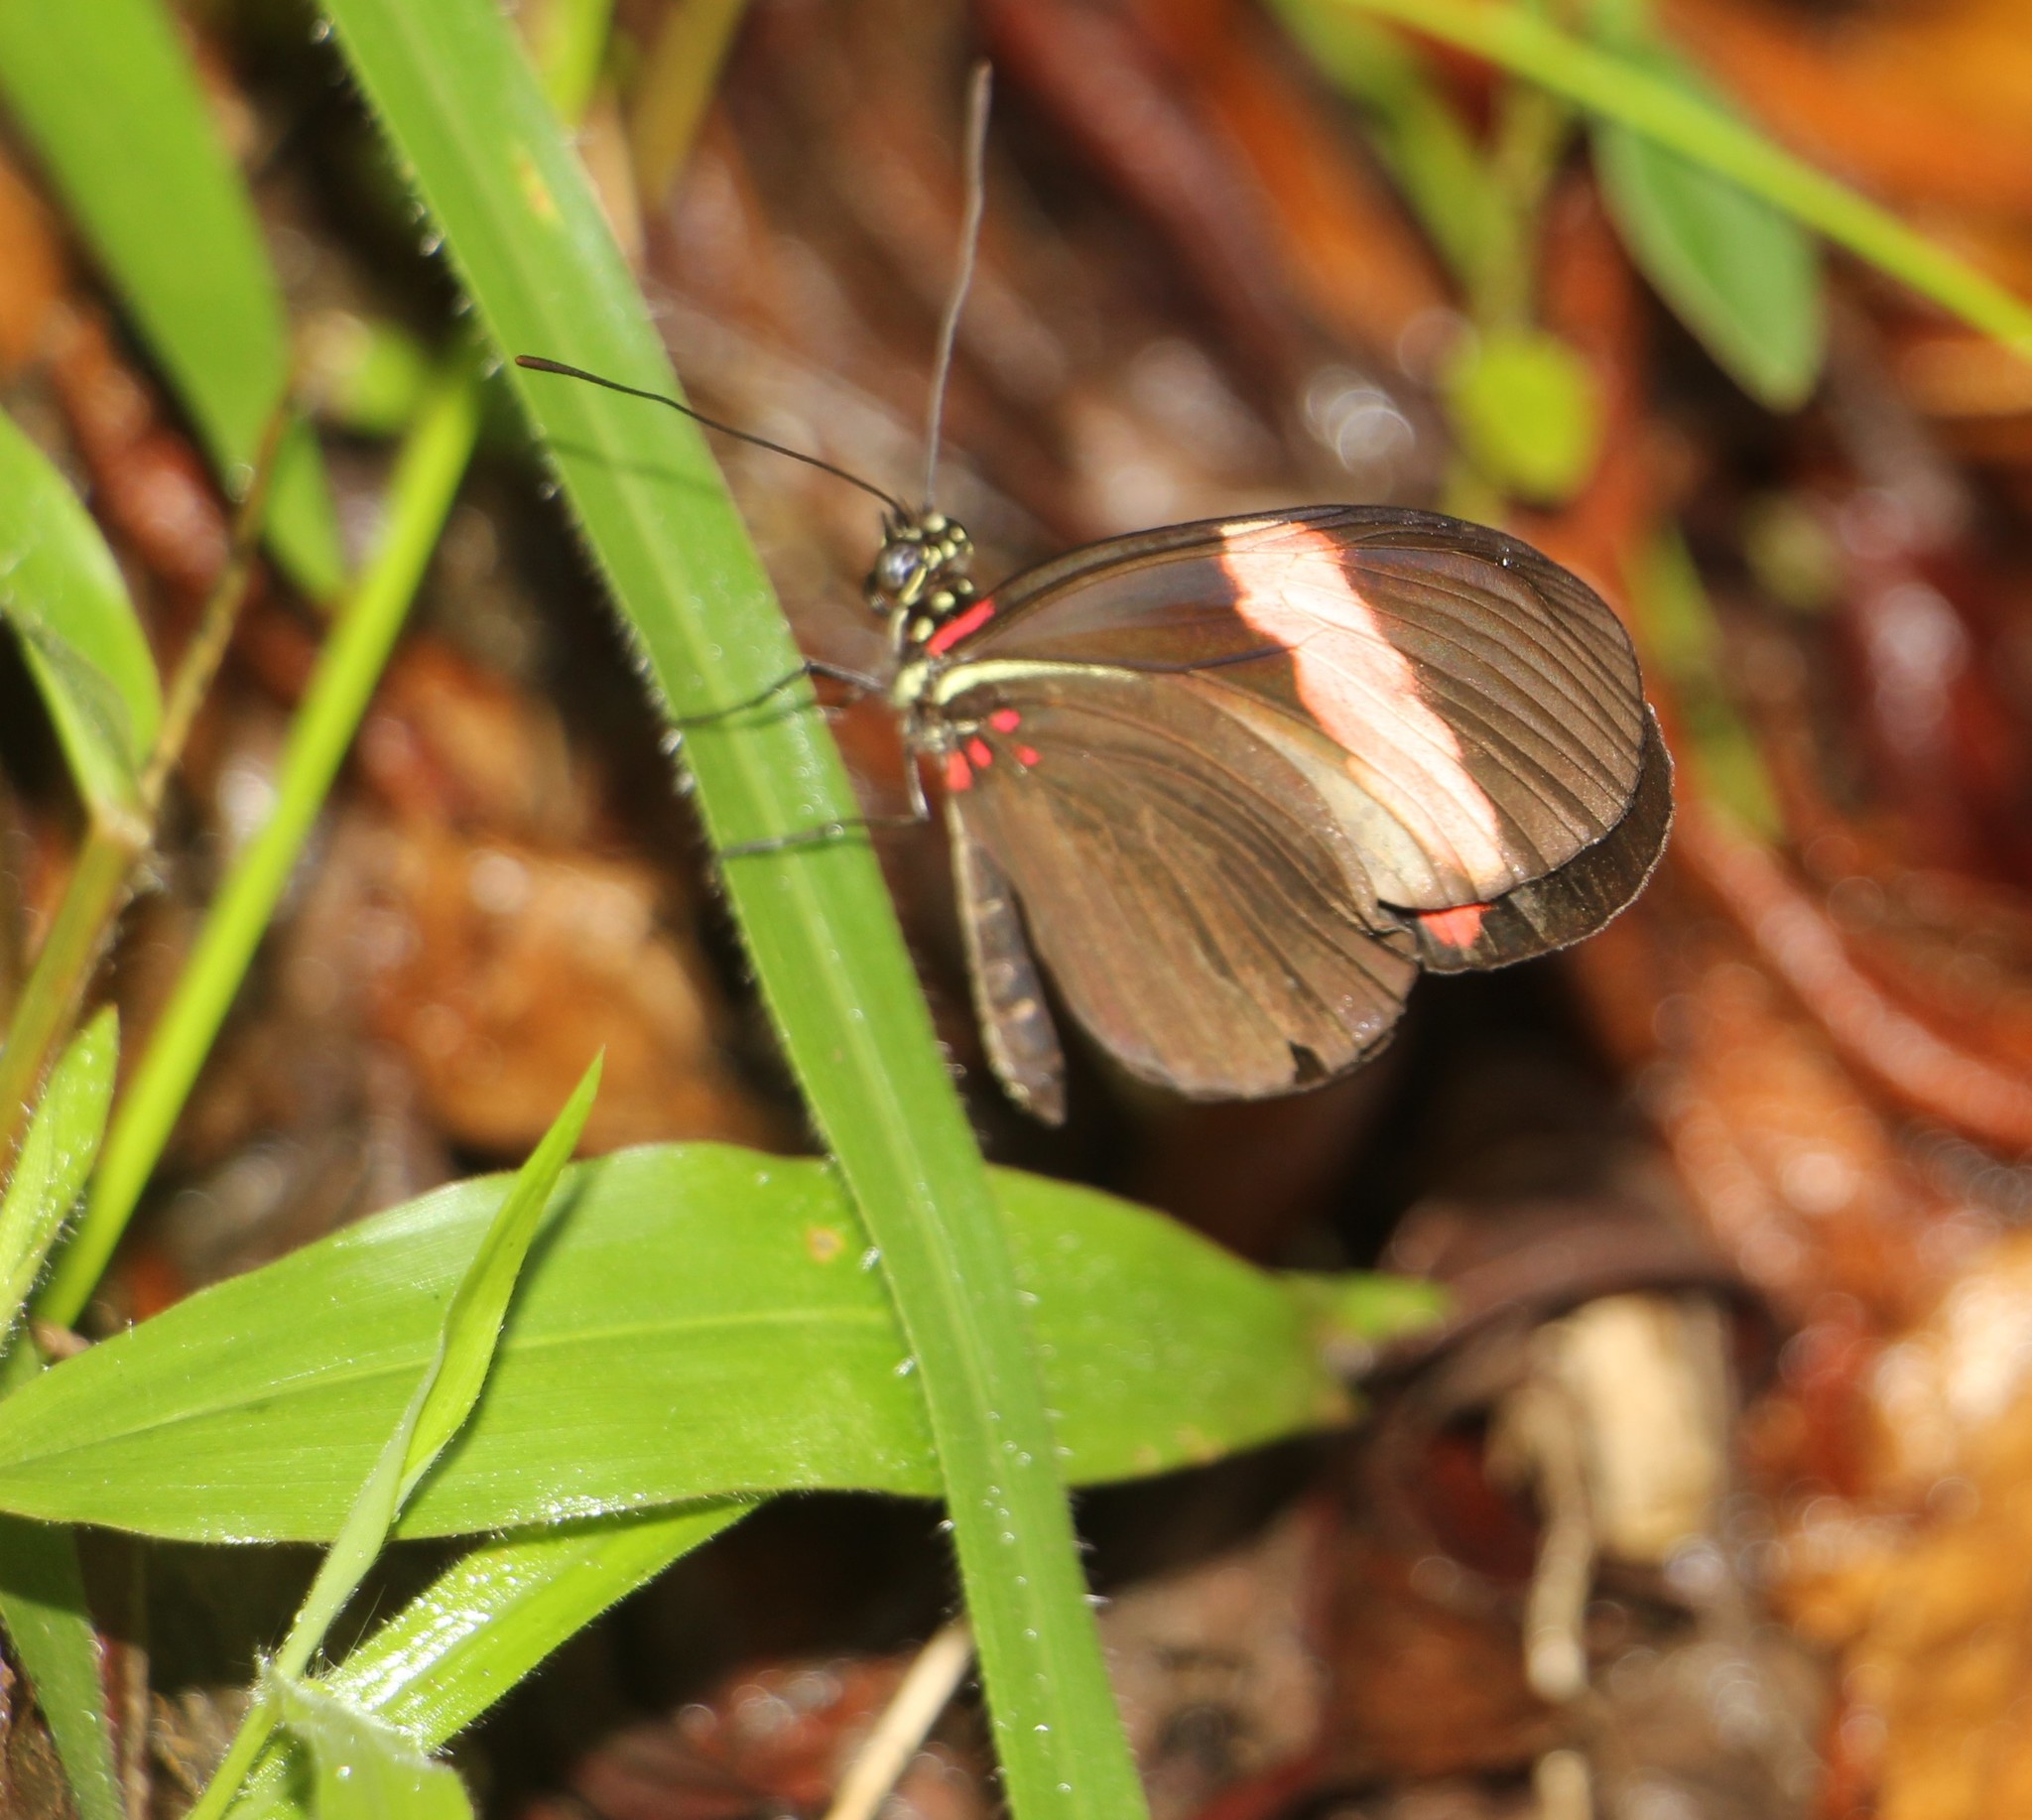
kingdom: Animalia
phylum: Arthropoda
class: Insecta
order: Lepidoptera
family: Nymphalidae
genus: Heliconius
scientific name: Heliconius erato
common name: Common patch longwing
